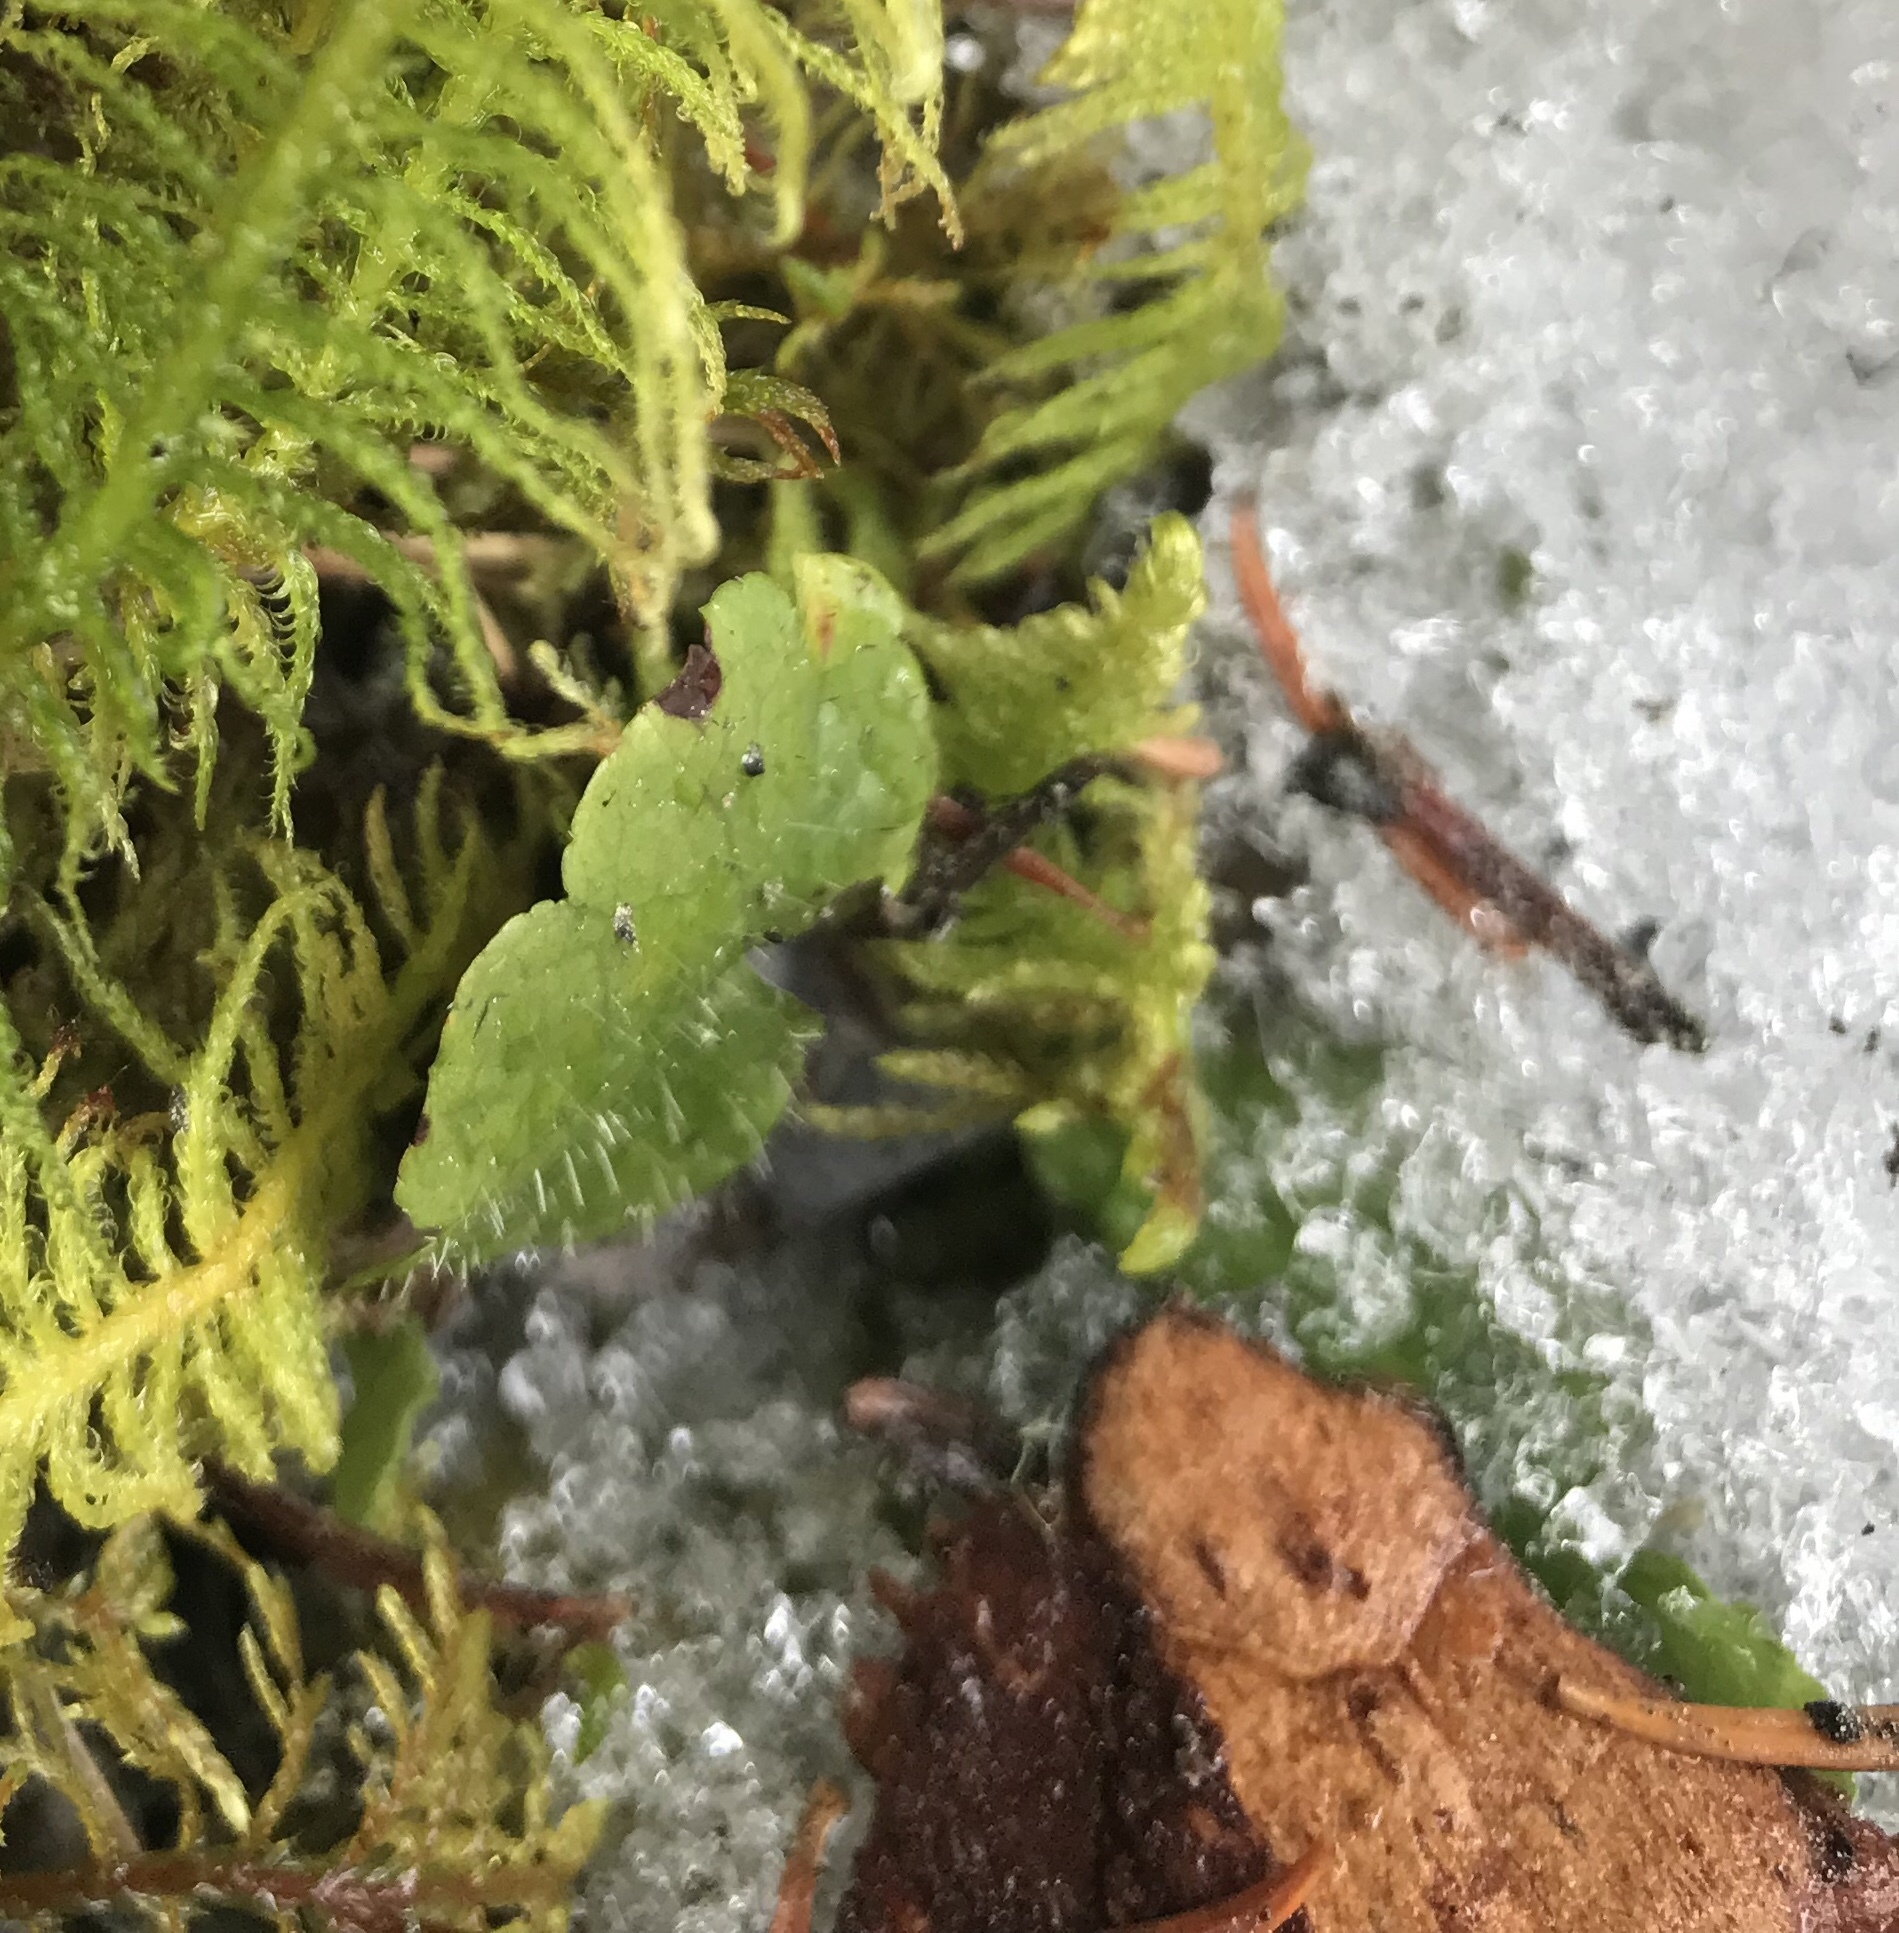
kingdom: Plantae
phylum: Tracheophyta
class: Magnoliopsida
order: Saxifragales
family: Saxifragaceae
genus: Mitella
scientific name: Mitella nuda
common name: Bare-stemmed bishop's-cap
